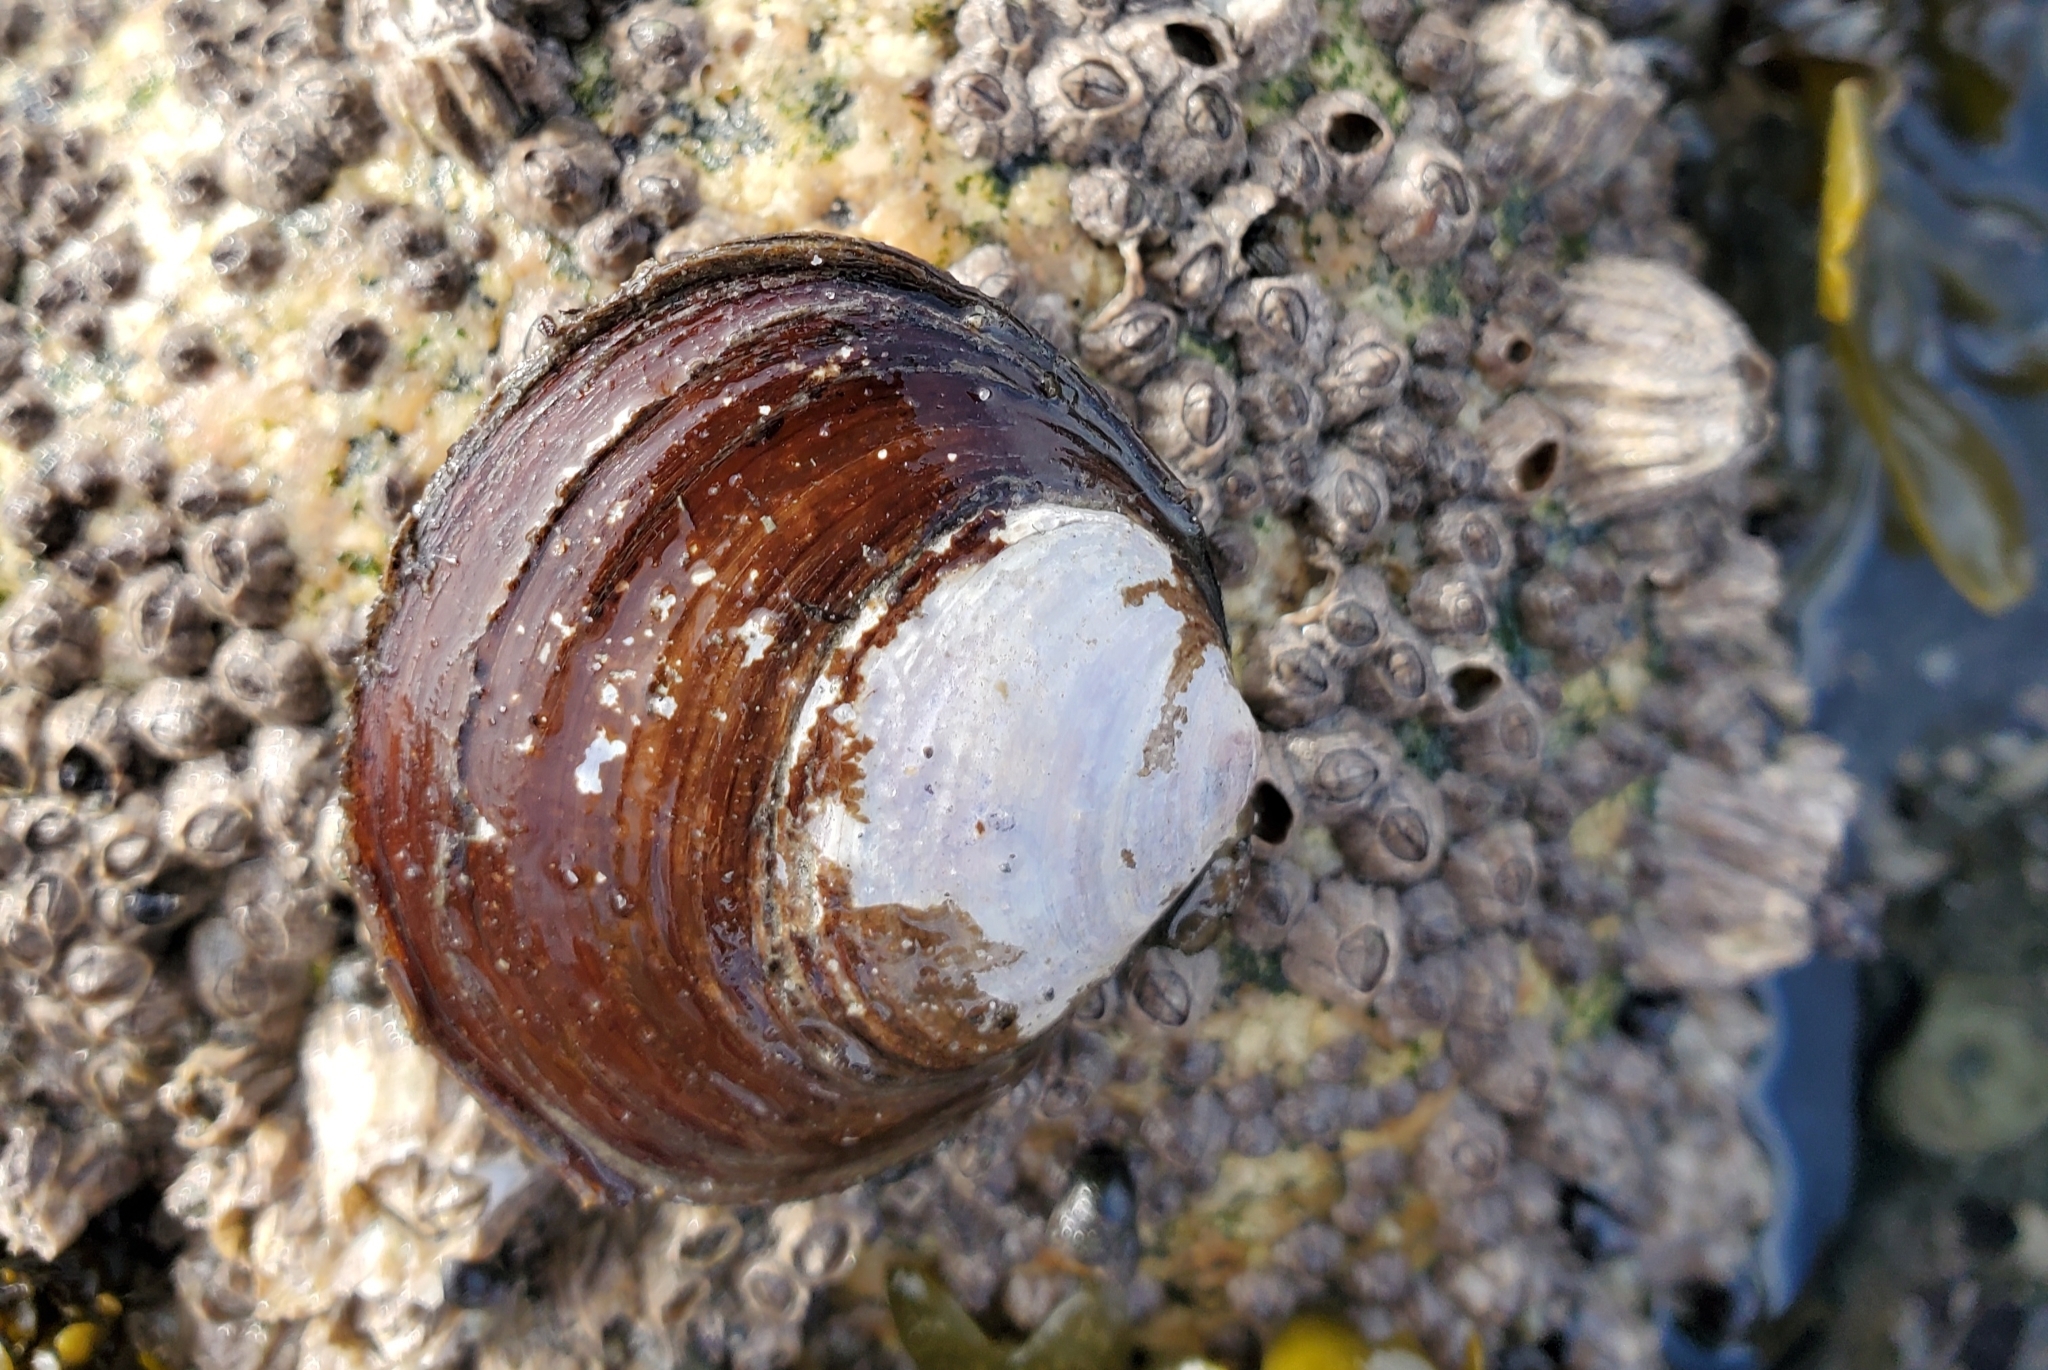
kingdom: Animalia
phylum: Mollusca
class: Bivalvia
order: Cardiida
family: Psammobiidae
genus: Nuttallia
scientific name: Nuttallia obscurata
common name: Purple mahogany-clam
